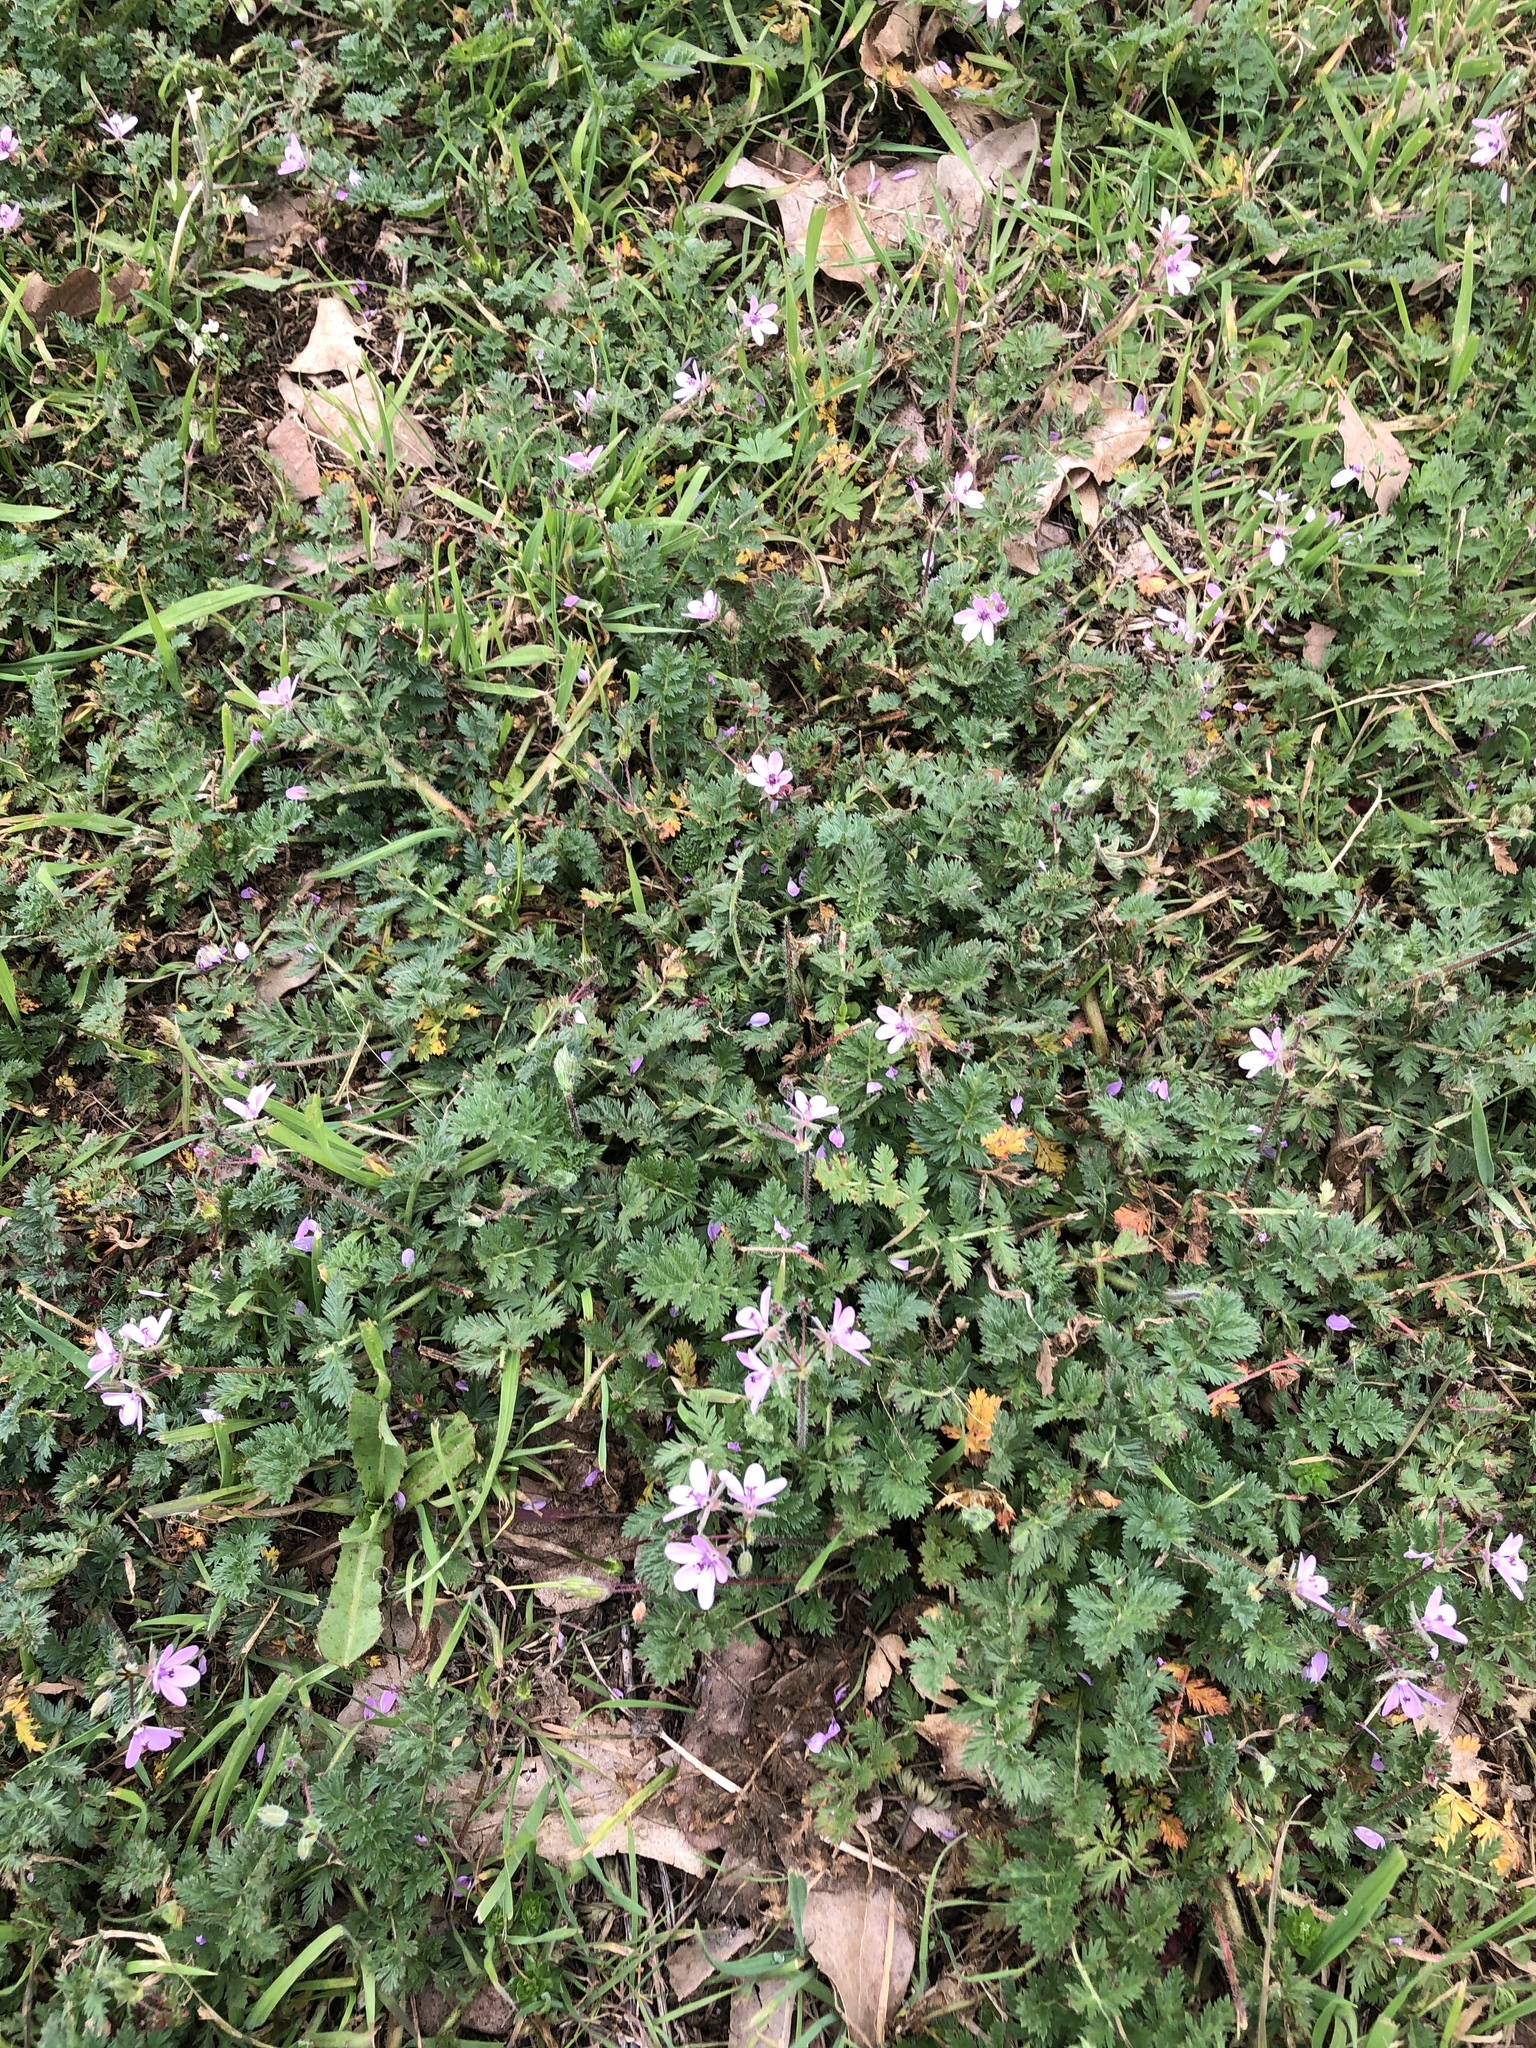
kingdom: Plantae
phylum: Tracheophyta
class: Magnoliopsida
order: Geraniales
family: Geraniaceae
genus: Erodium
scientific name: Erodium cicutarium
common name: Common stork's-bill
